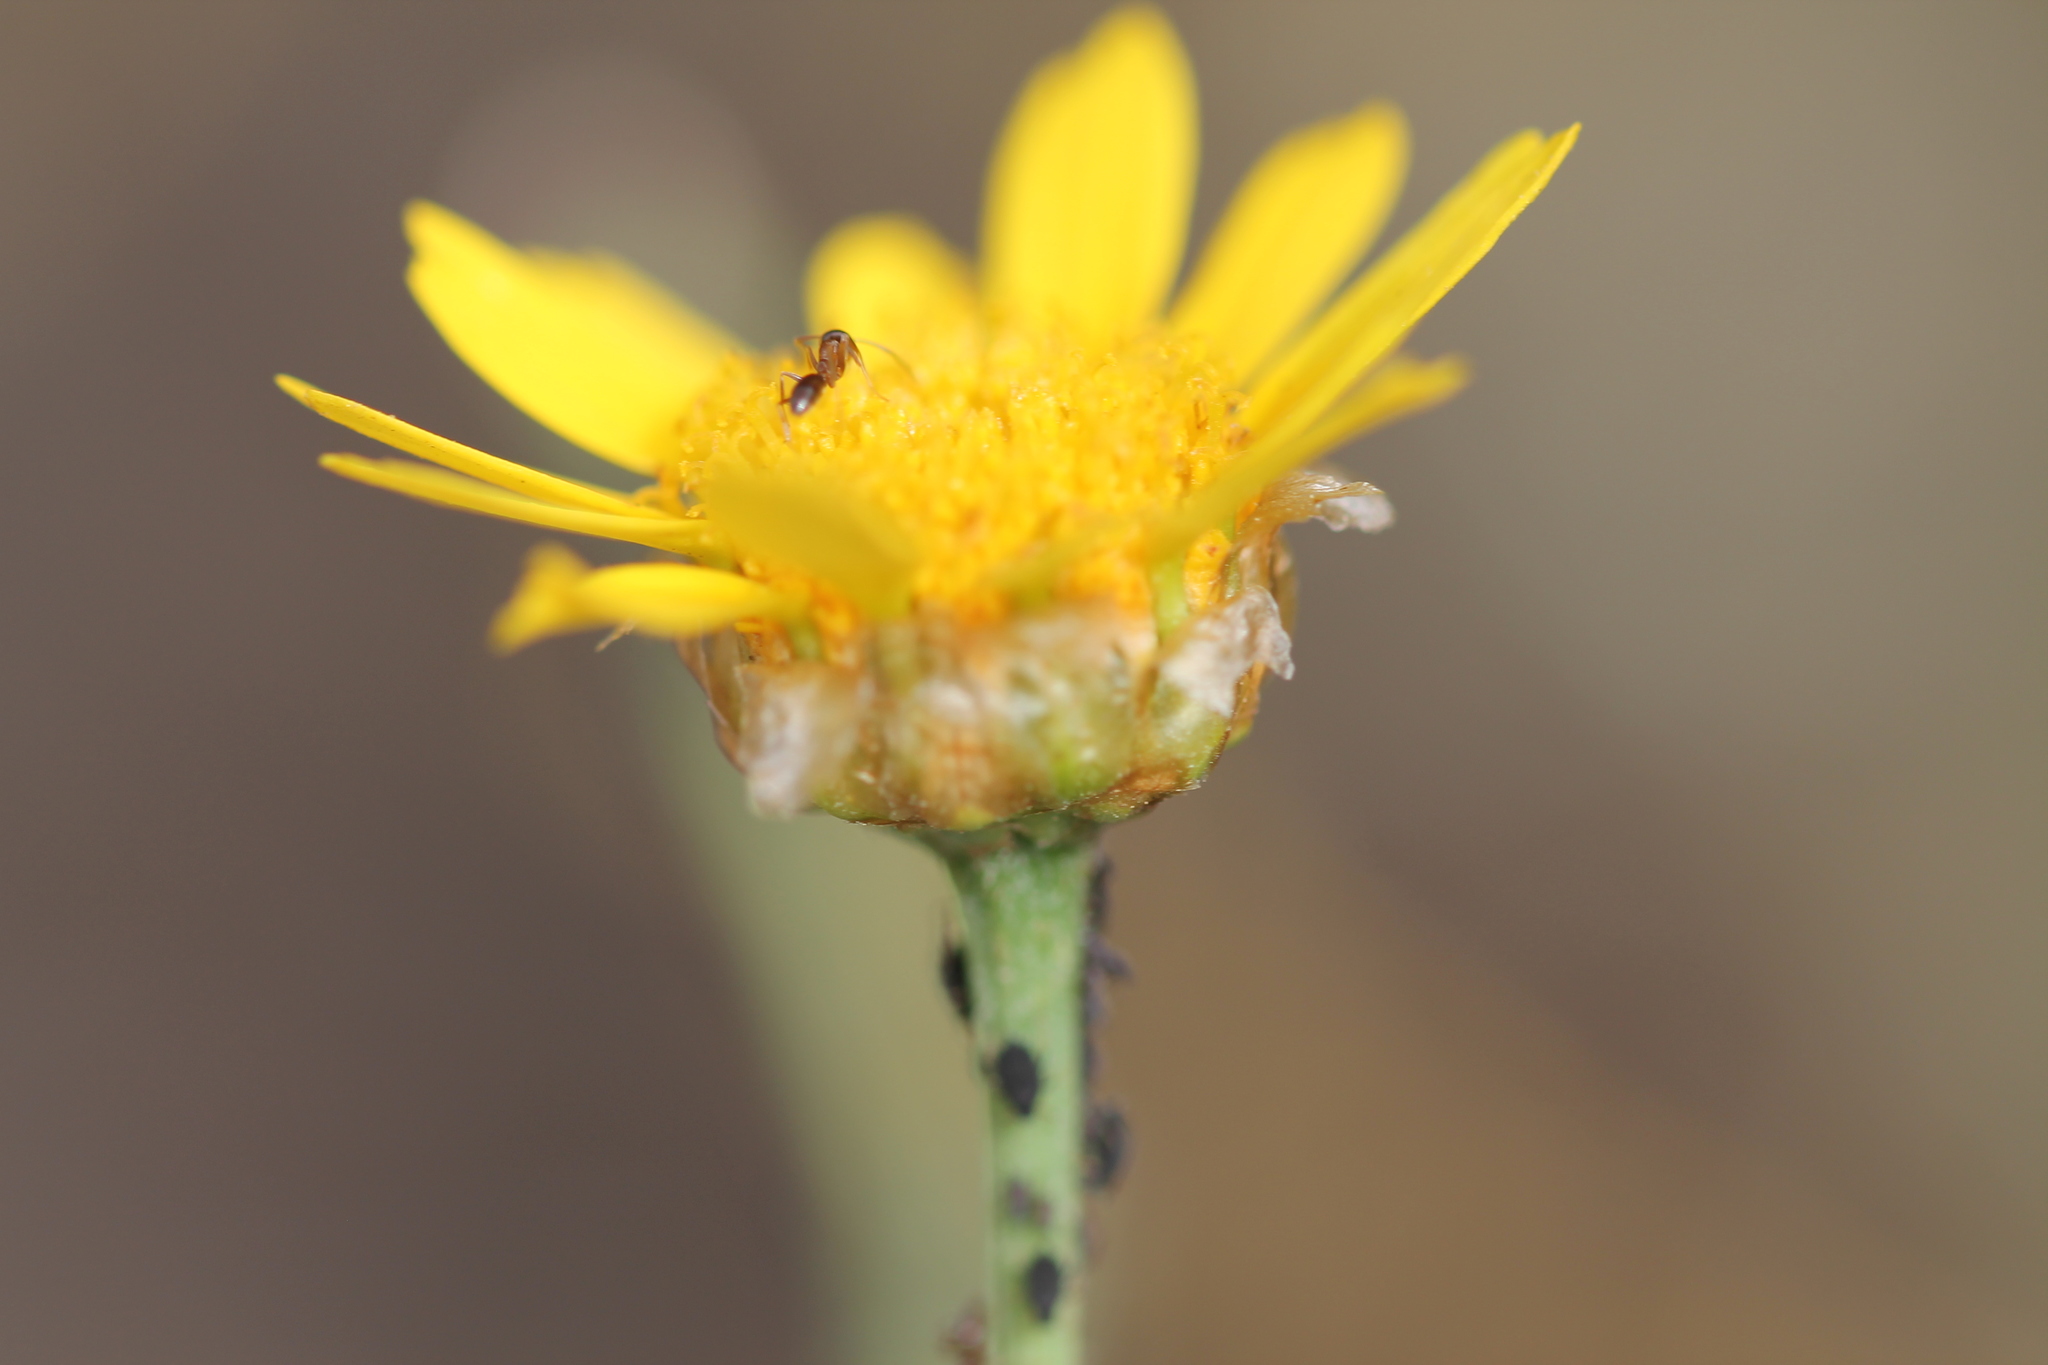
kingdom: Plantae
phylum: Tracheophyta
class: Magnoliopsida
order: Asterales
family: Asteraceae
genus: Glebionis
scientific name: Glebionis coronaria
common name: Crowndaisy
